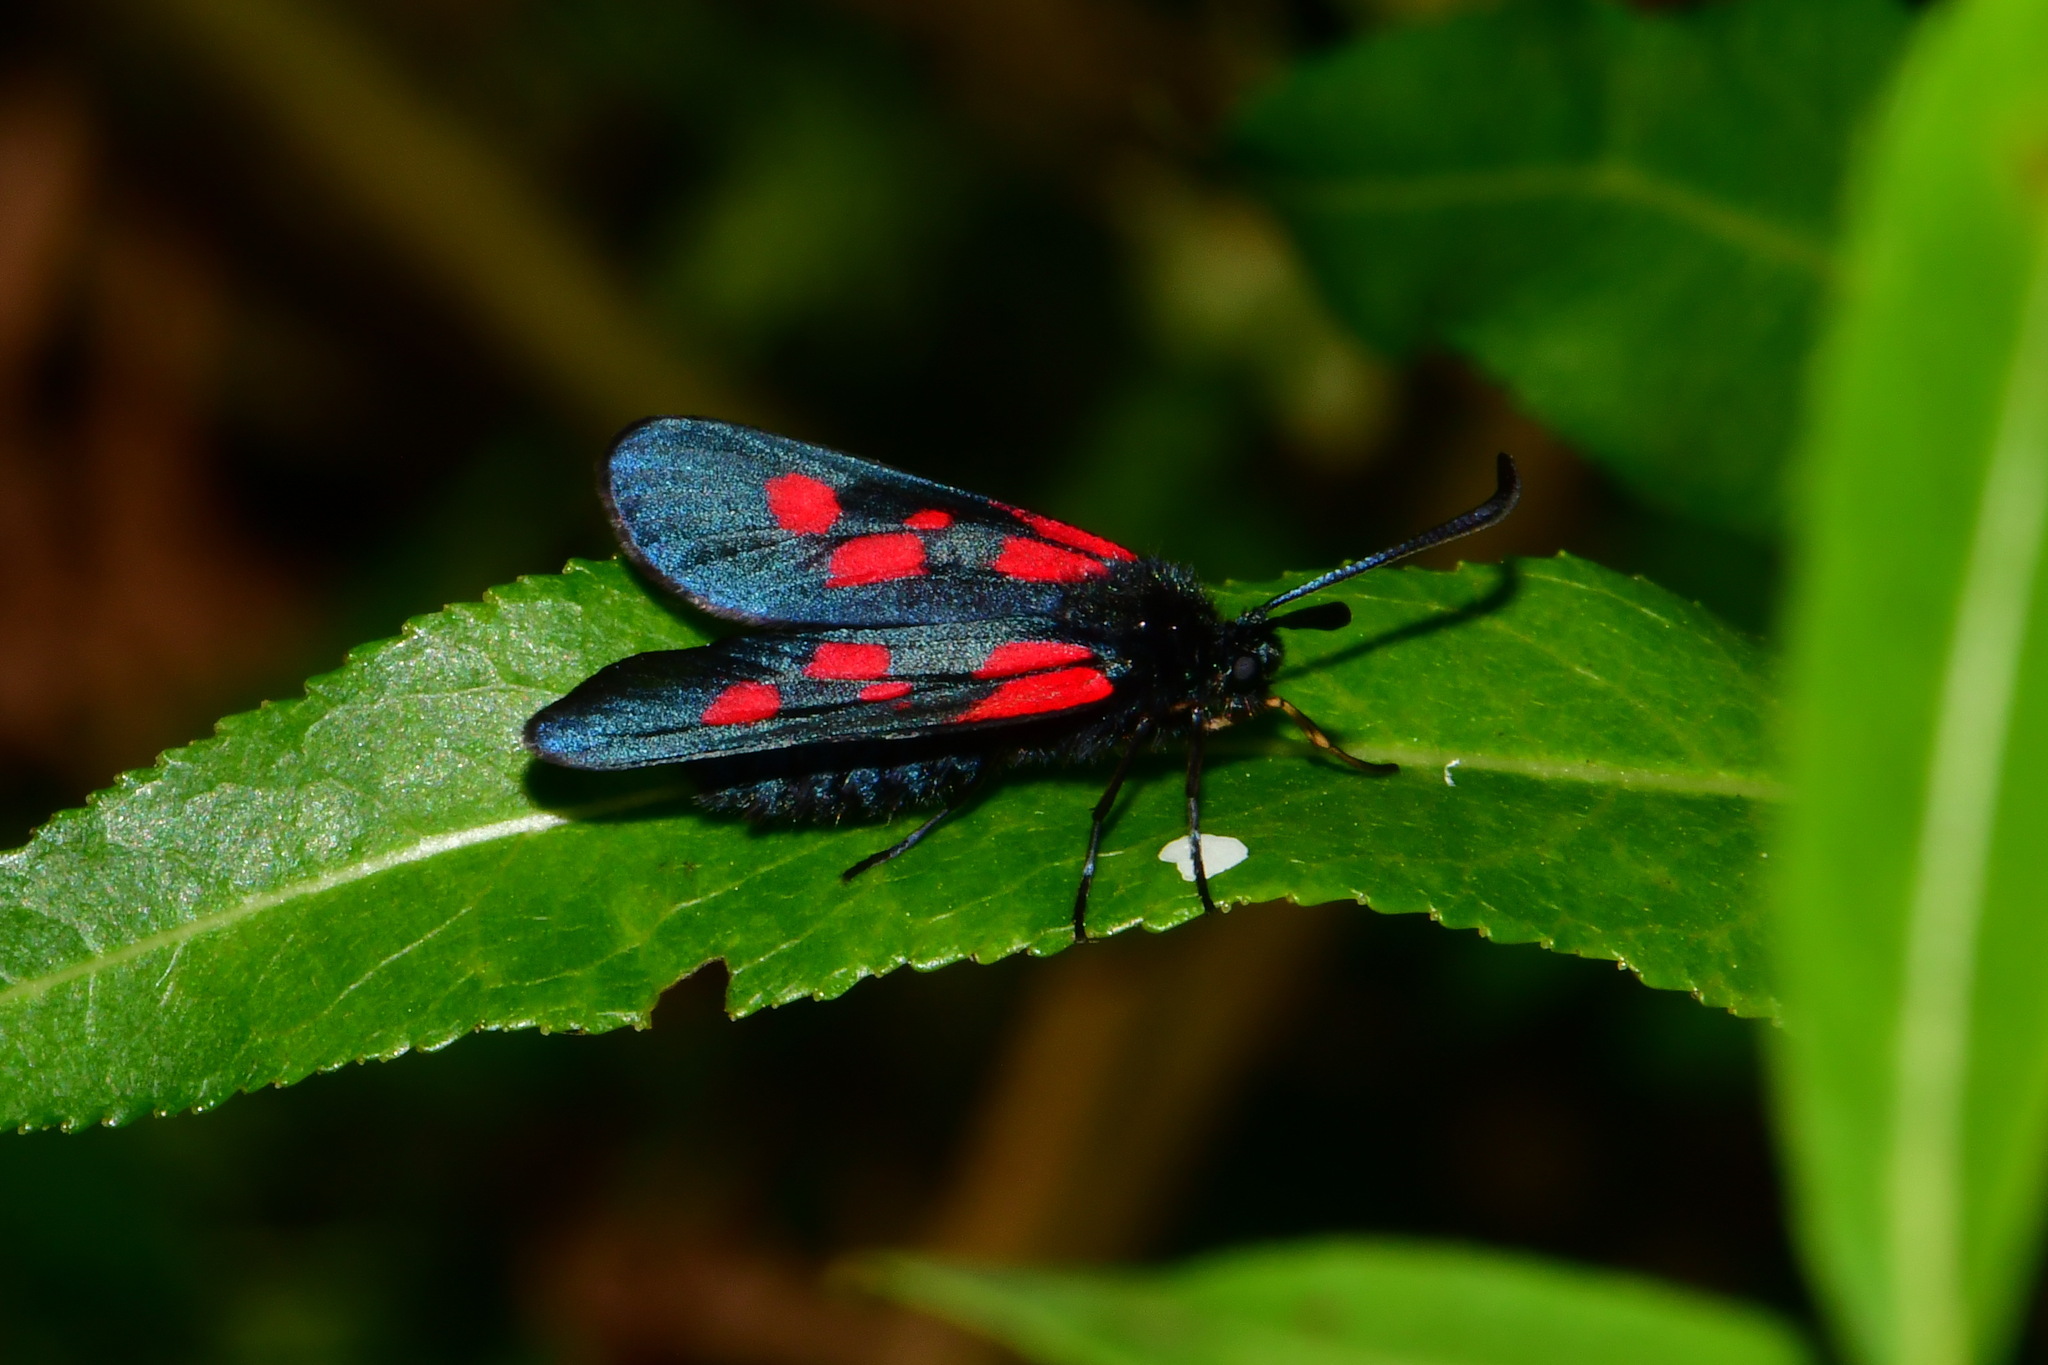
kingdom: Animalia
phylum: Arthropoda
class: Insecta
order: Lepidoptera
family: Zygaenidae
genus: Zygaena
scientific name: Zygaena viciae
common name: New forest burnet
